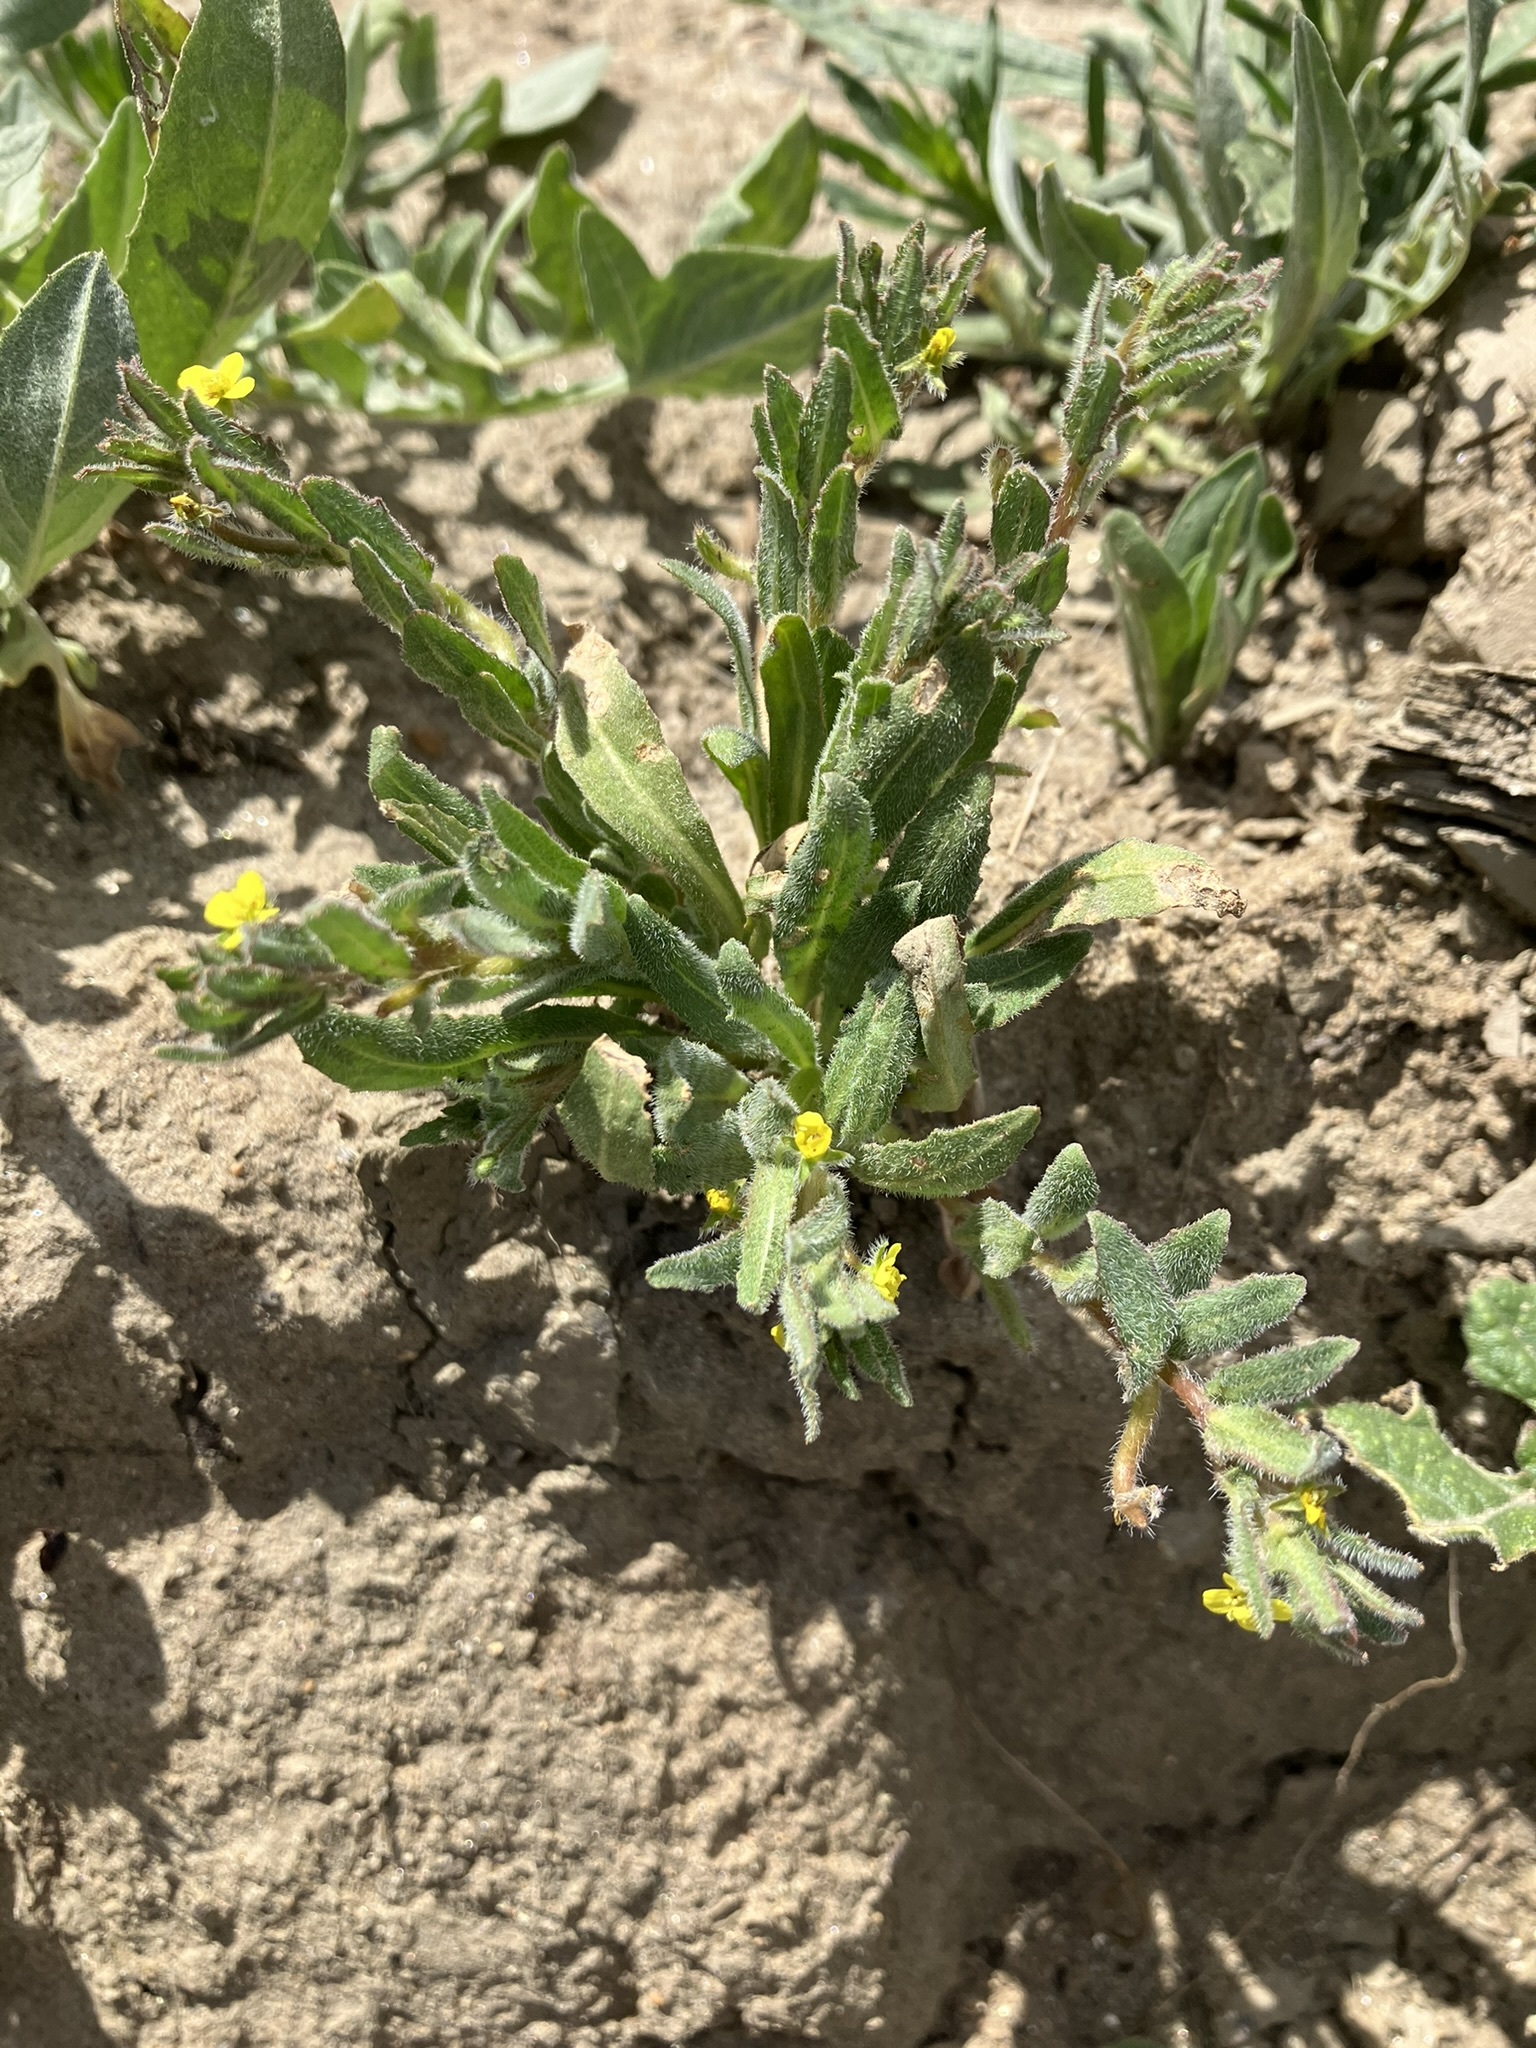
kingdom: Plantae
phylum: Tracheophyta
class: Magnoliopsida
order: Myrtales
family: Onagraceae
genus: Camissoniopsis
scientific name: Camissoniopsis micrantha
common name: Miniature suncup
